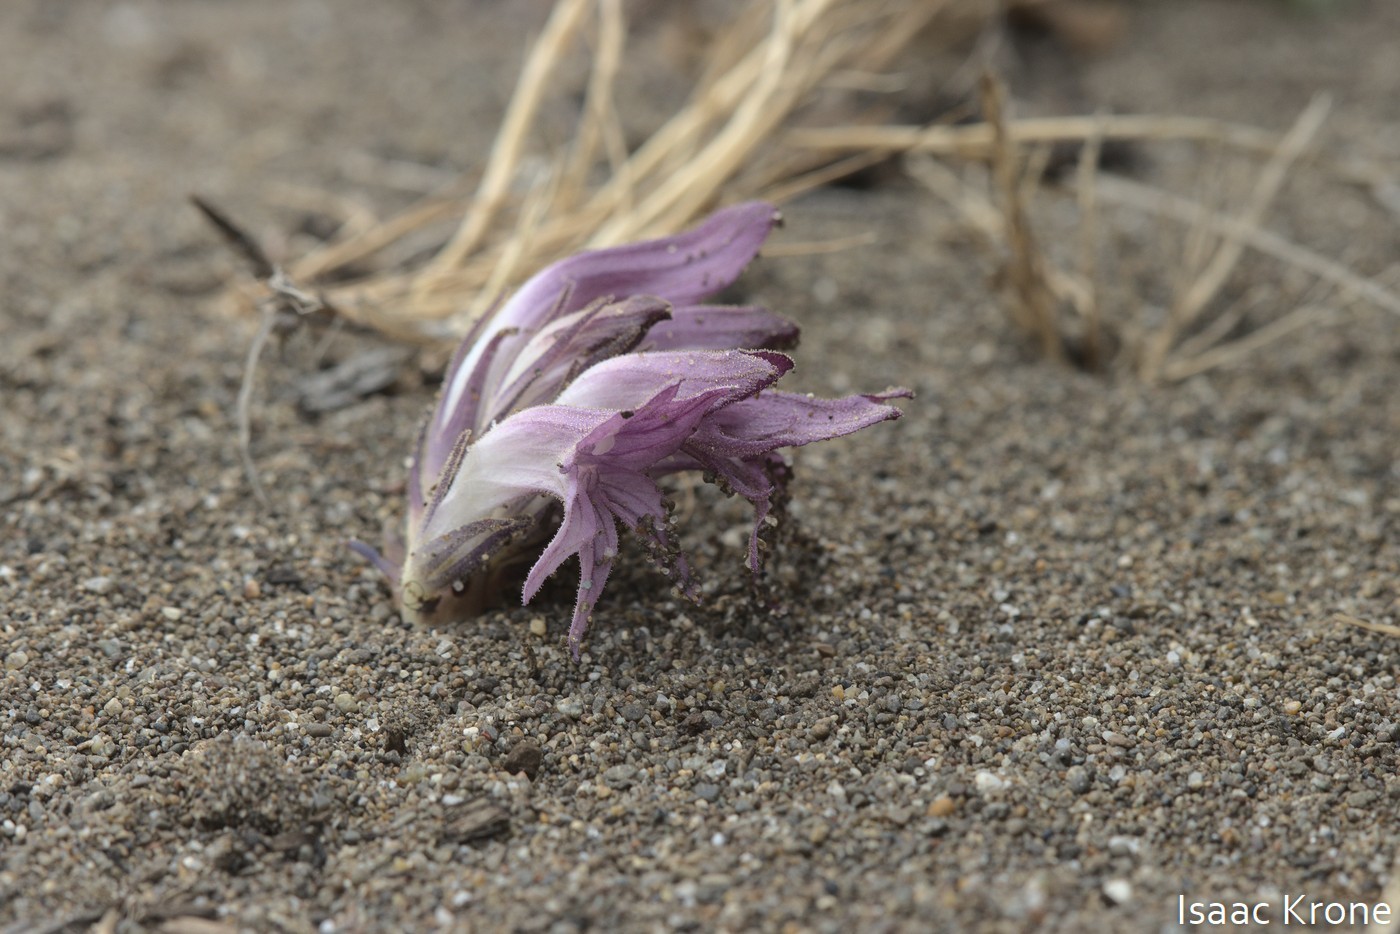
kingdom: Plantae
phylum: Tracheophyta
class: Magnoliopsida
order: Lamiales
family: Orobanchaceae
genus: Aphyllon
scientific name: Aphyllon californicum
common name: California broomrape
